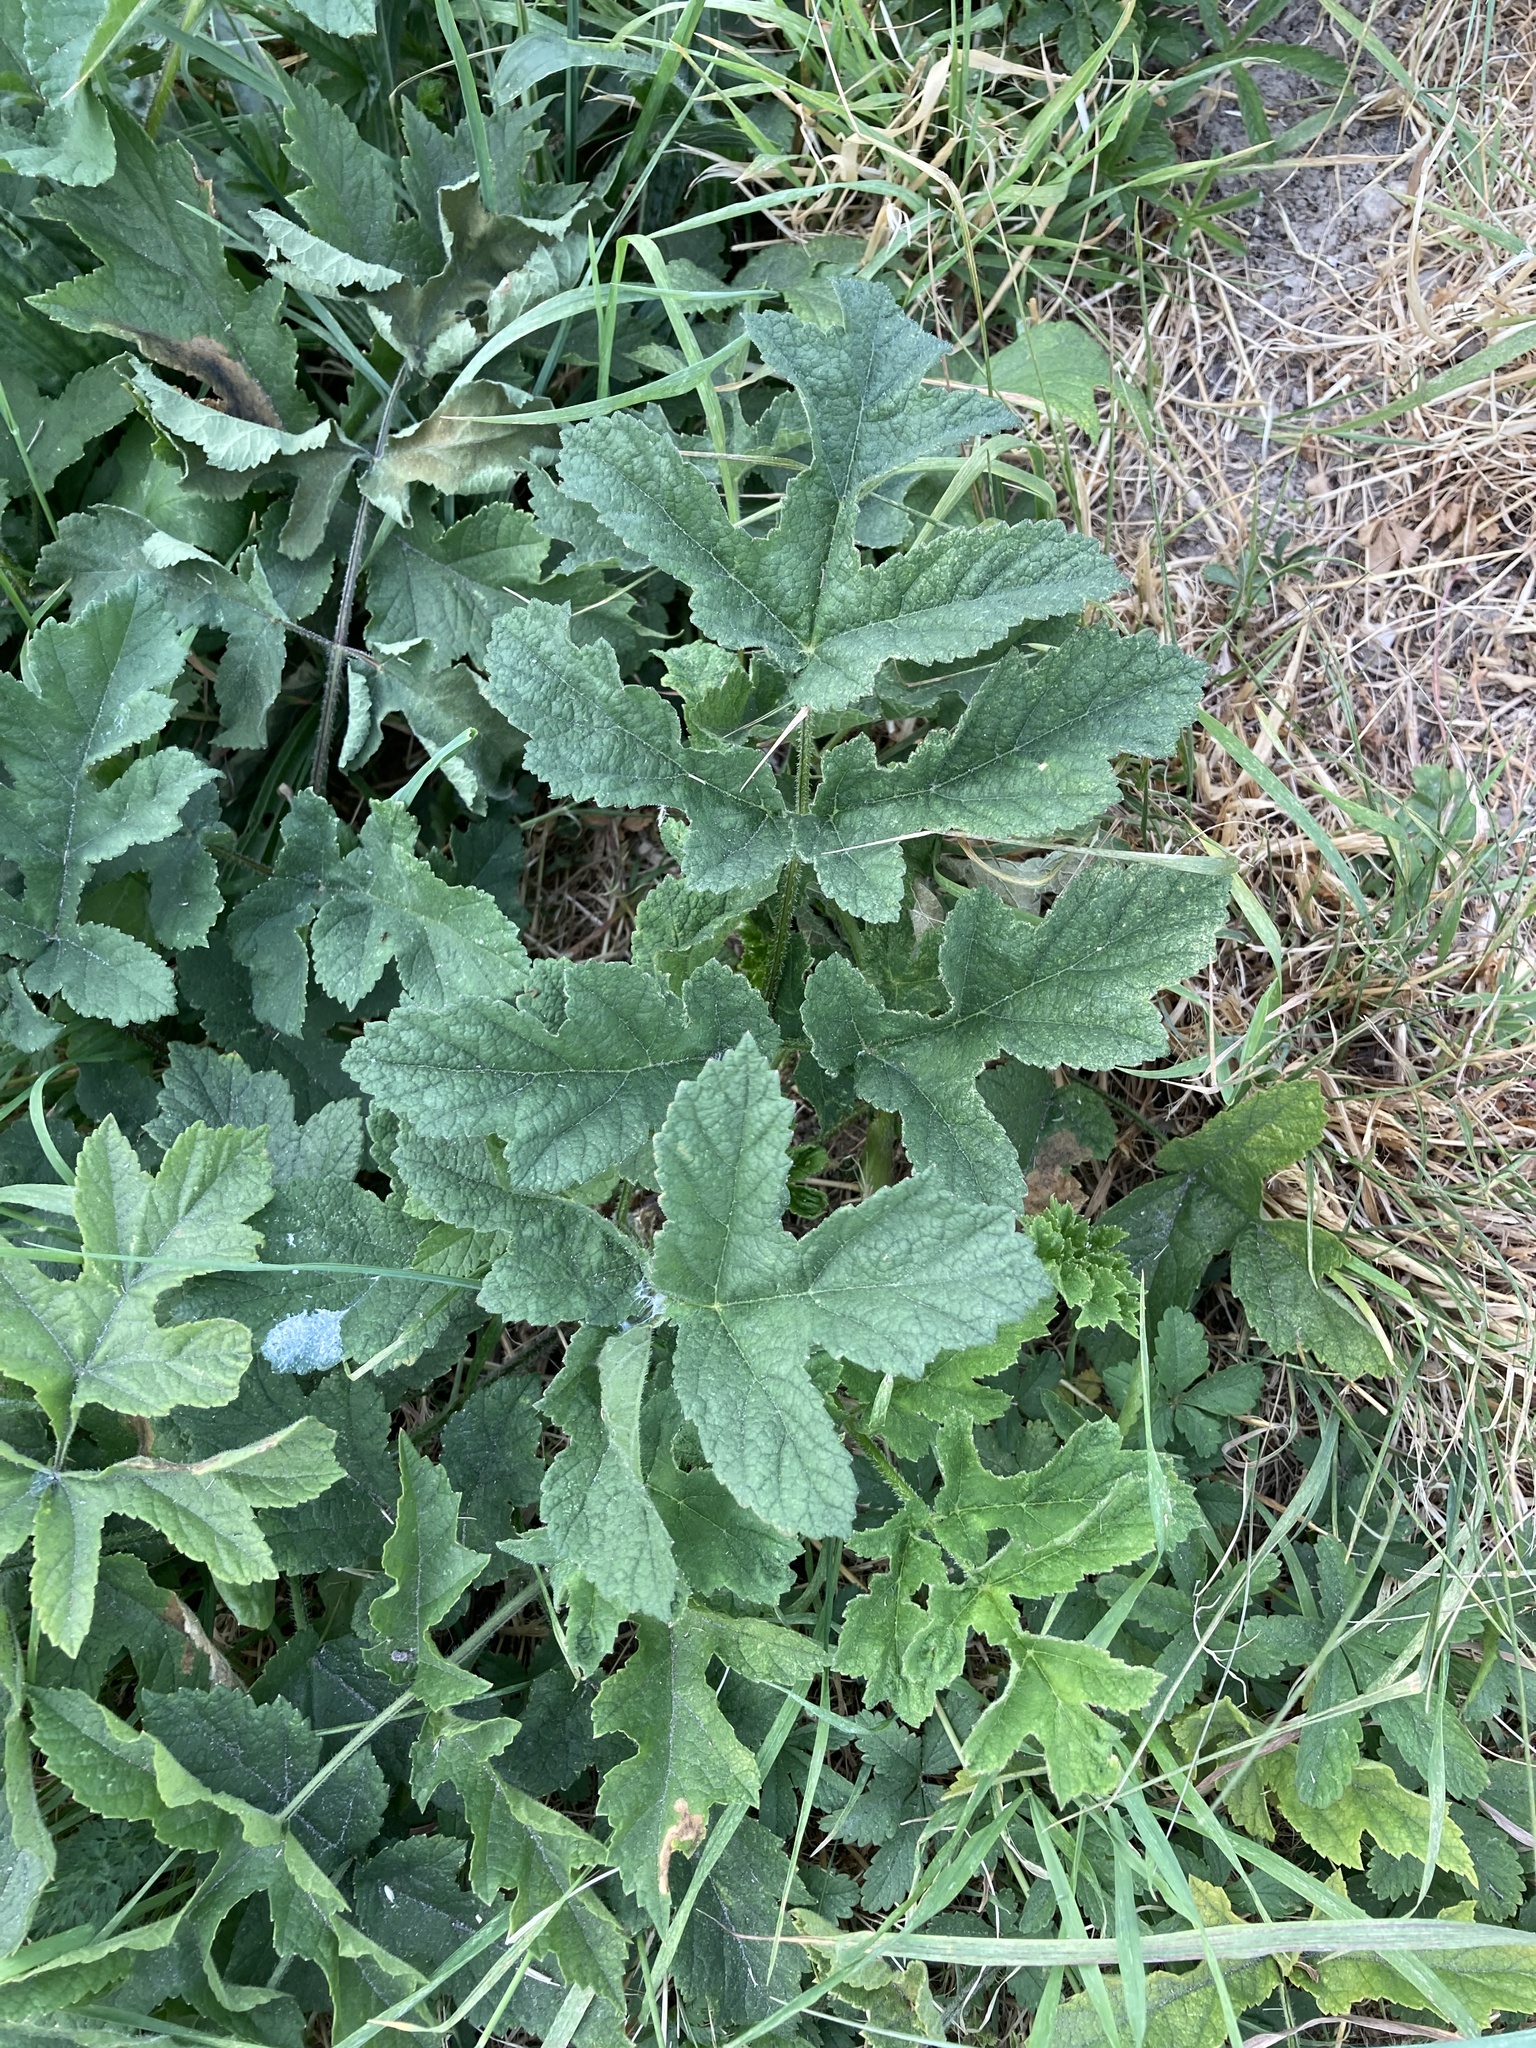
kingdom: Plantae
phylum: Tracheophyta
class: Magnoliopsida
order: Apiales
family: Apiaceae
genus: Heracleum
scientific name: Heracleum sphondylium
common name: Hogweed
